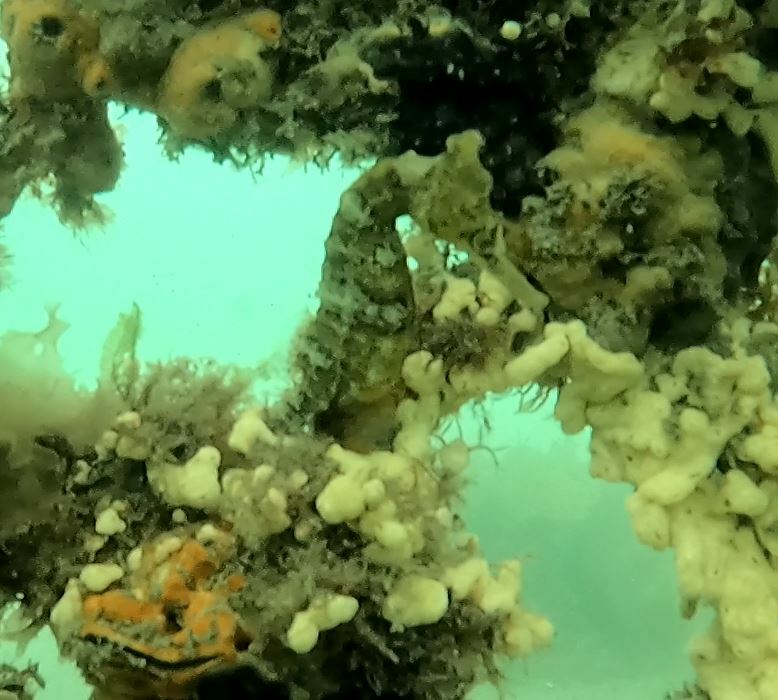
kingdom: Animalia
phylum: Chordata
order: Syngnathiformes
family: Syngnathidae
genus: Hippocampus
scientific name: Hippocampus whitei
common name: New holland seahorse
